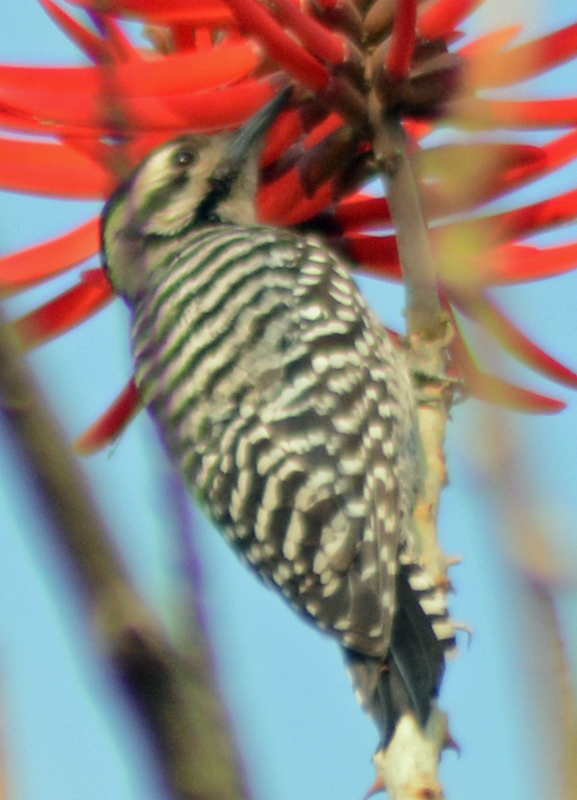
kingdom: Animalia
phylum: Chordata
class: Aves
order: Piciformes
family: Picidae
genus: Dryobates
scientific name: Dryobates scalaris
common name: Ladder-backed woodpecker
